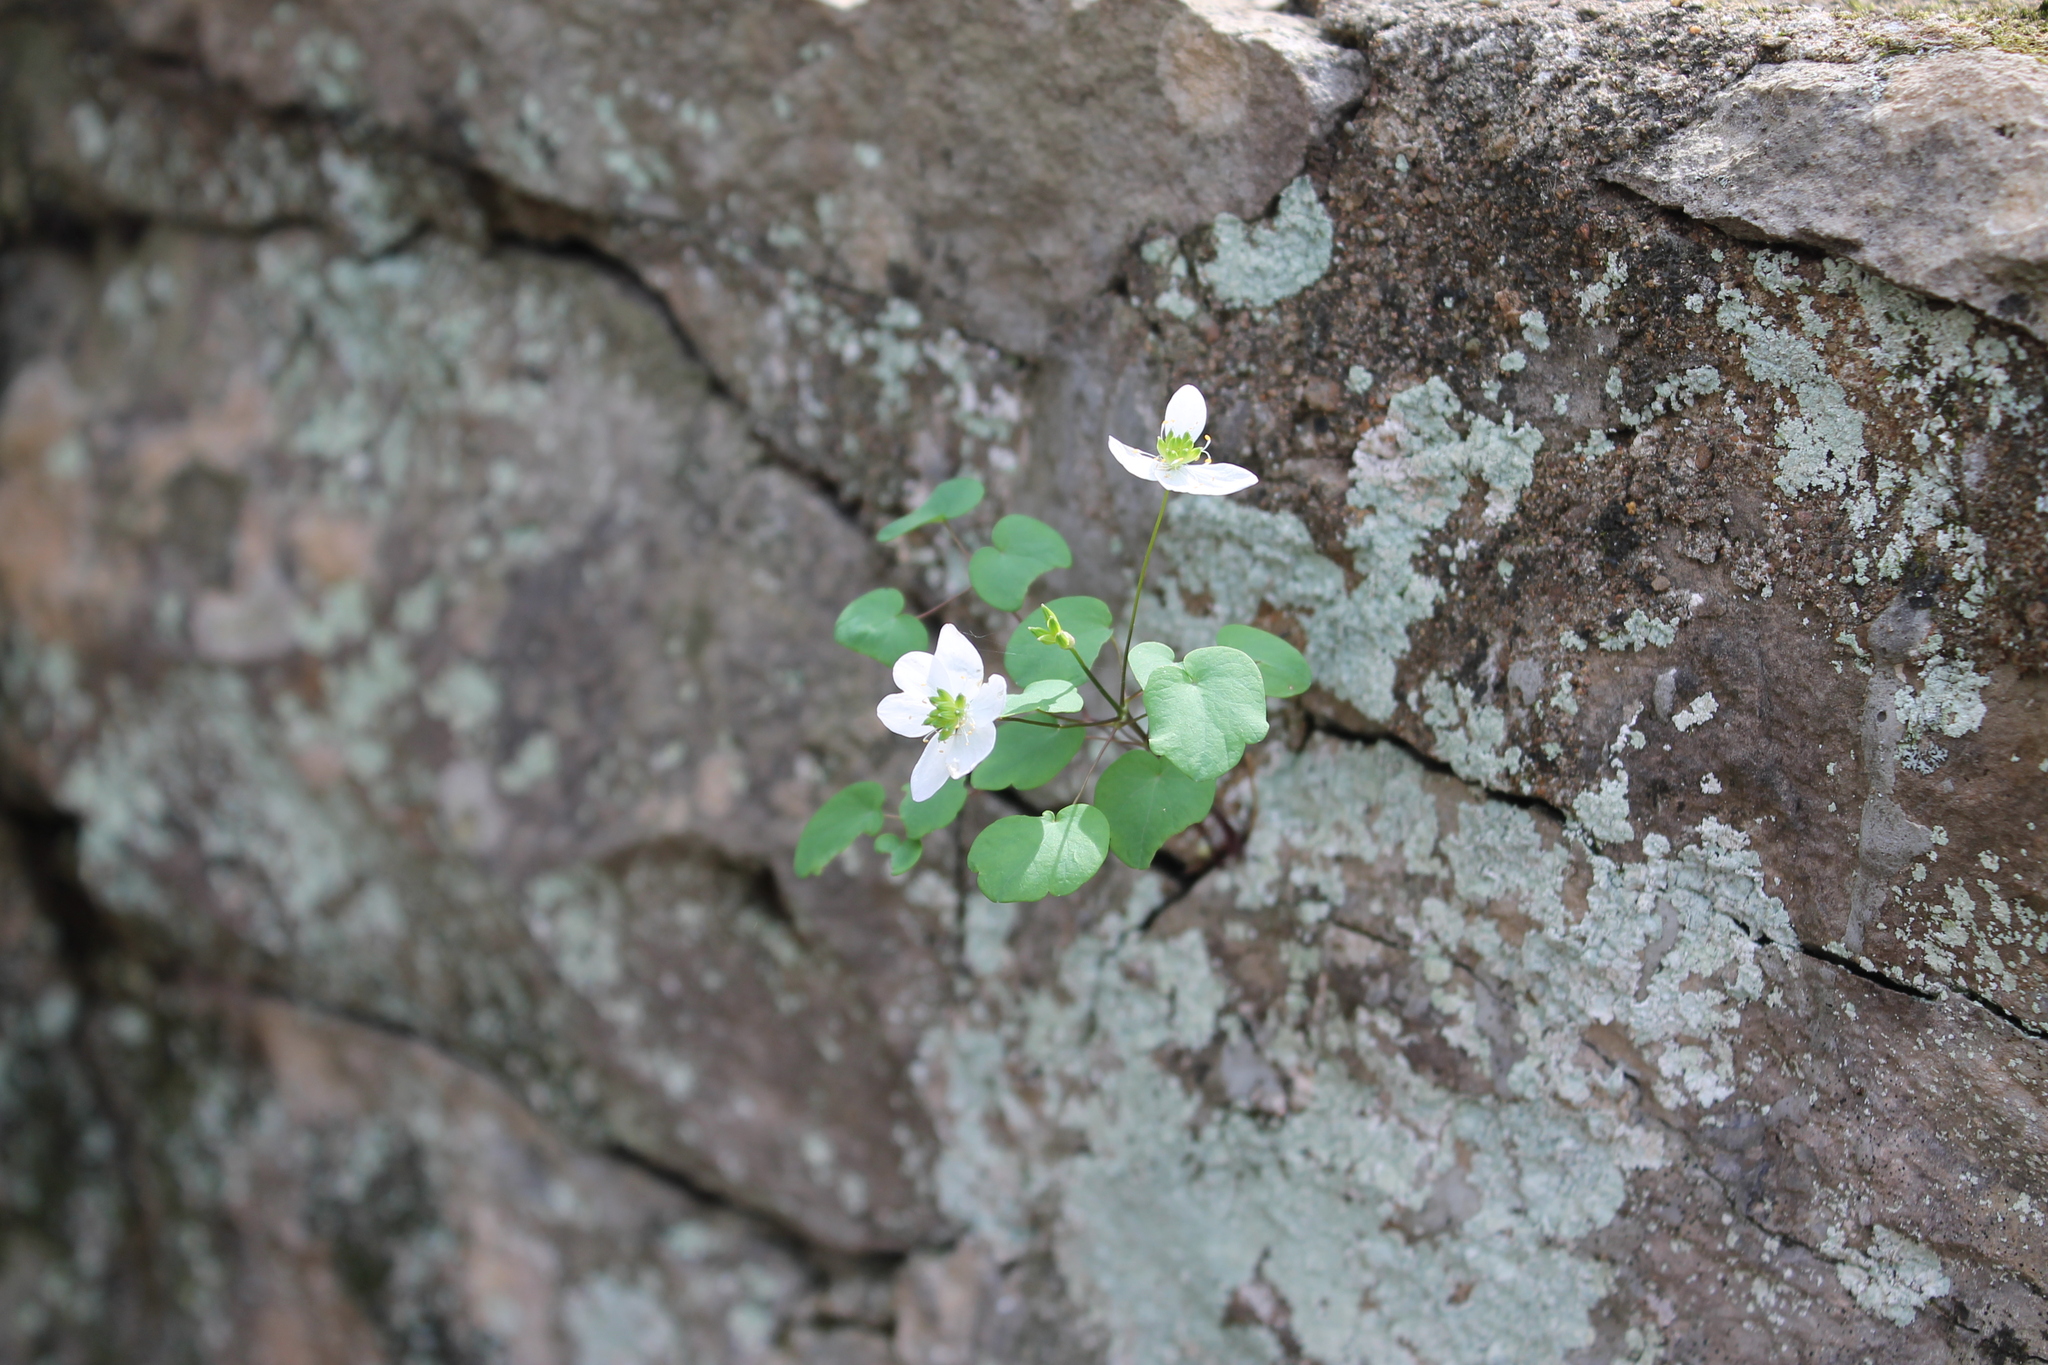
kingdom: Plantae
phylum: Tracheophyta
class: Magnoliopsida
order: Ranunculales
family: Ranunculaceae
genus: Thalictrum
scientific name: Thalictrum thalictroides
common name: Rue-anemone
